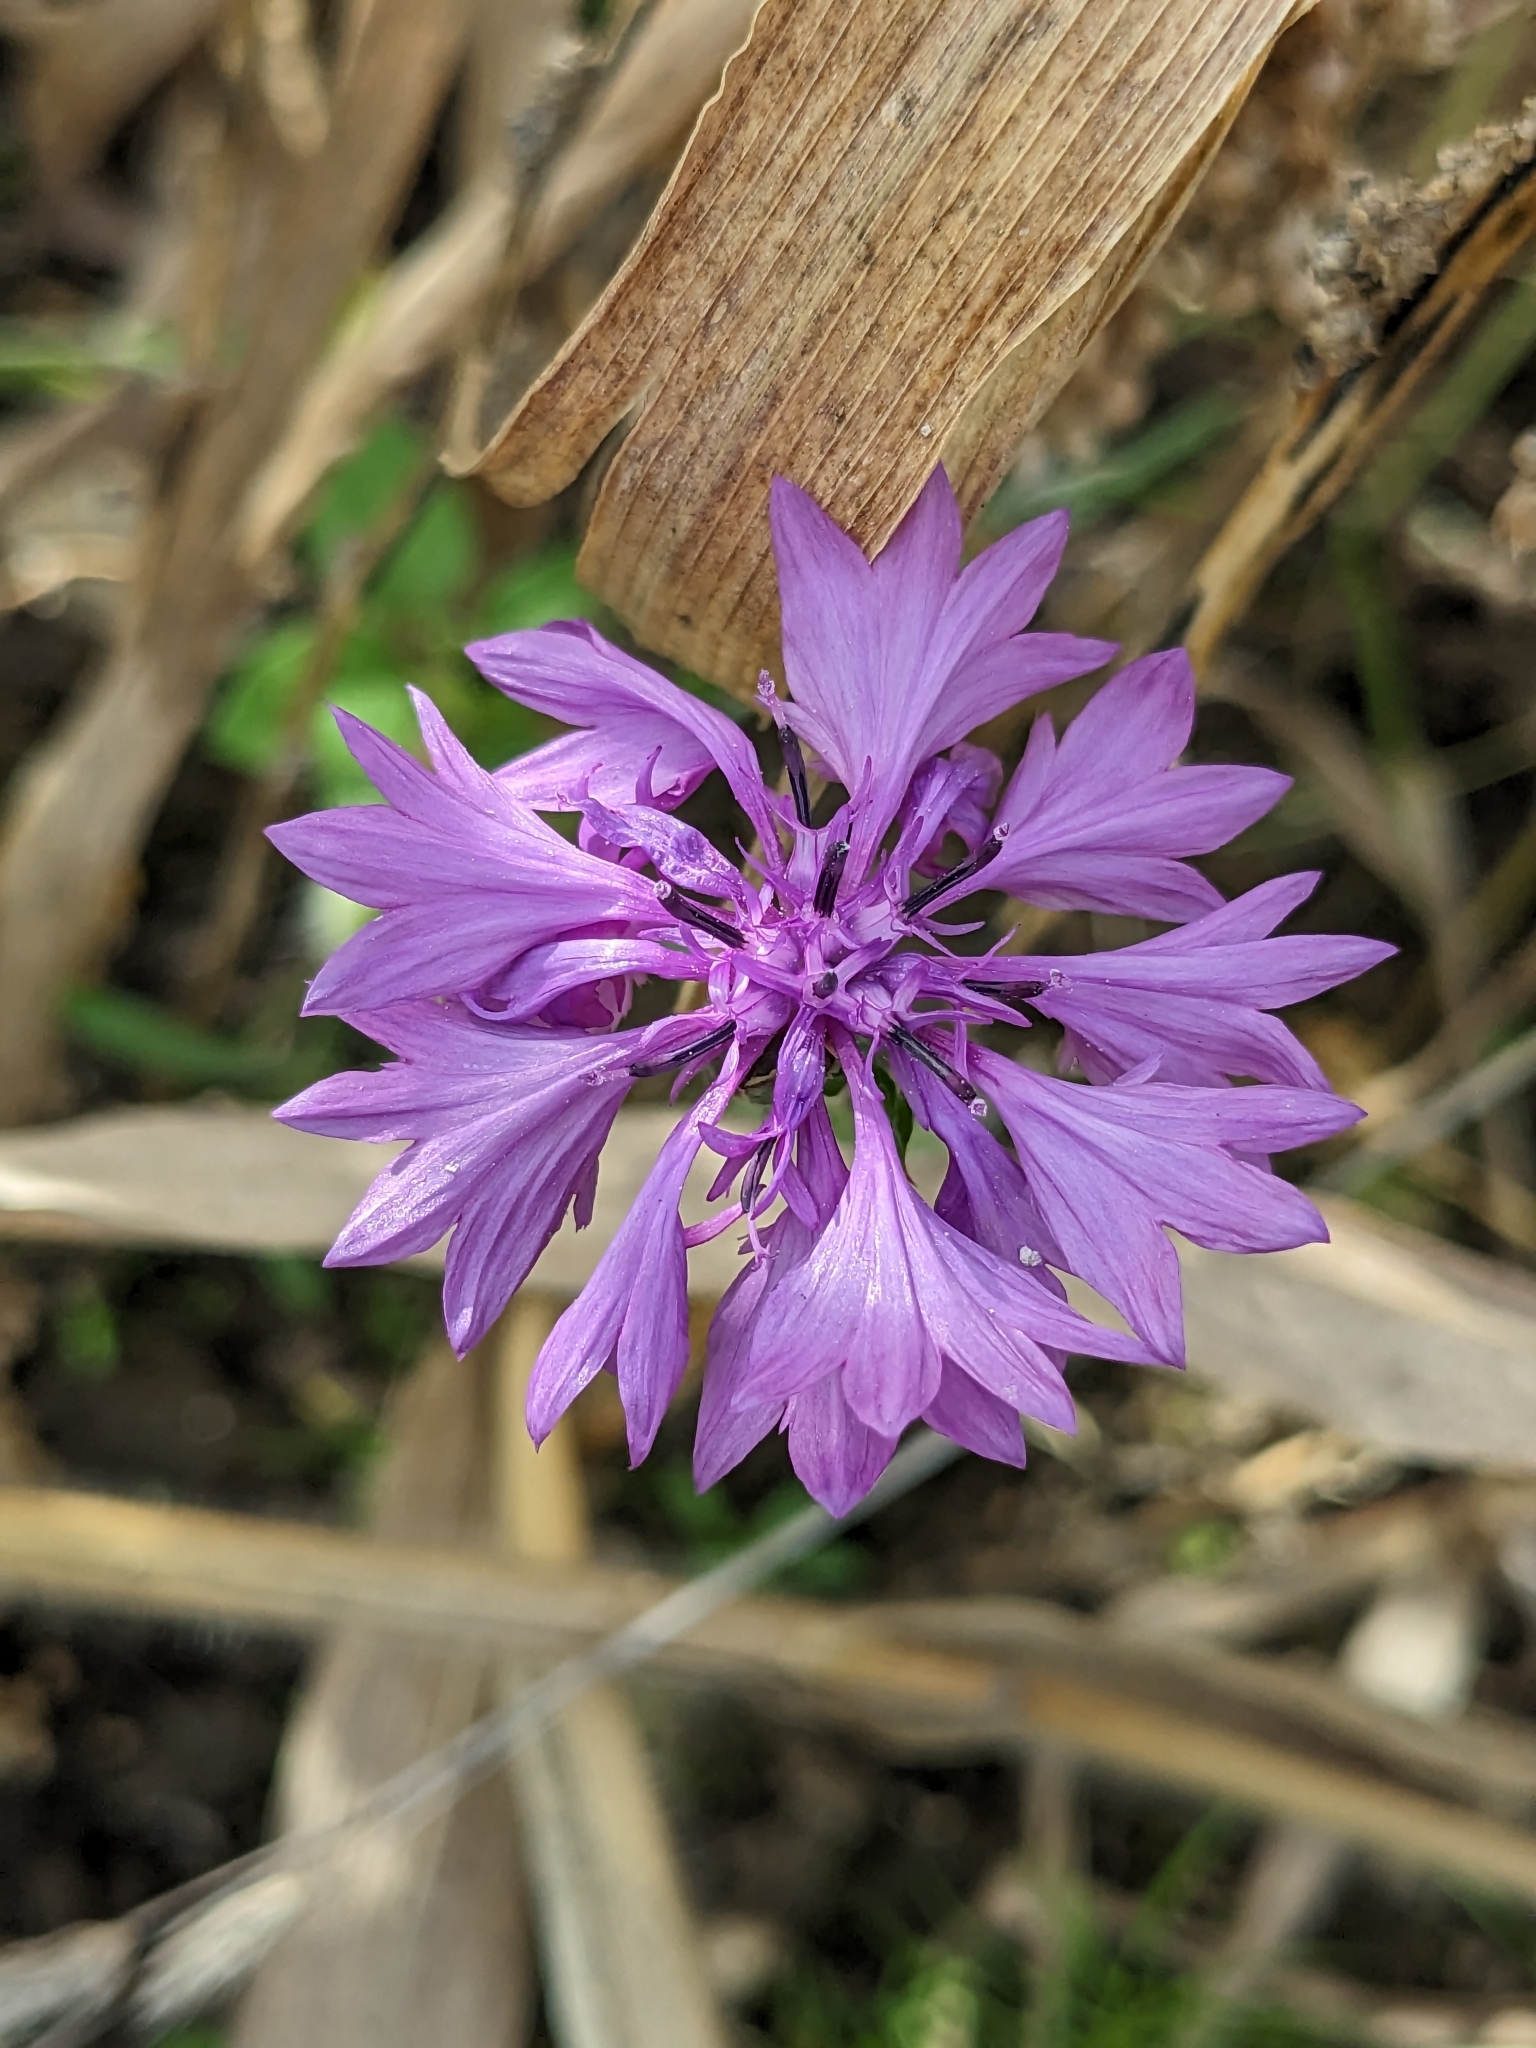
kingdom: Plantae
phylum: Tracheophyta
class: Magnoliopsida
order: Asterales
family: Asteraceae
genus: Centaurea
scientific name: Centaurea cyanus
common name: Cornflower
